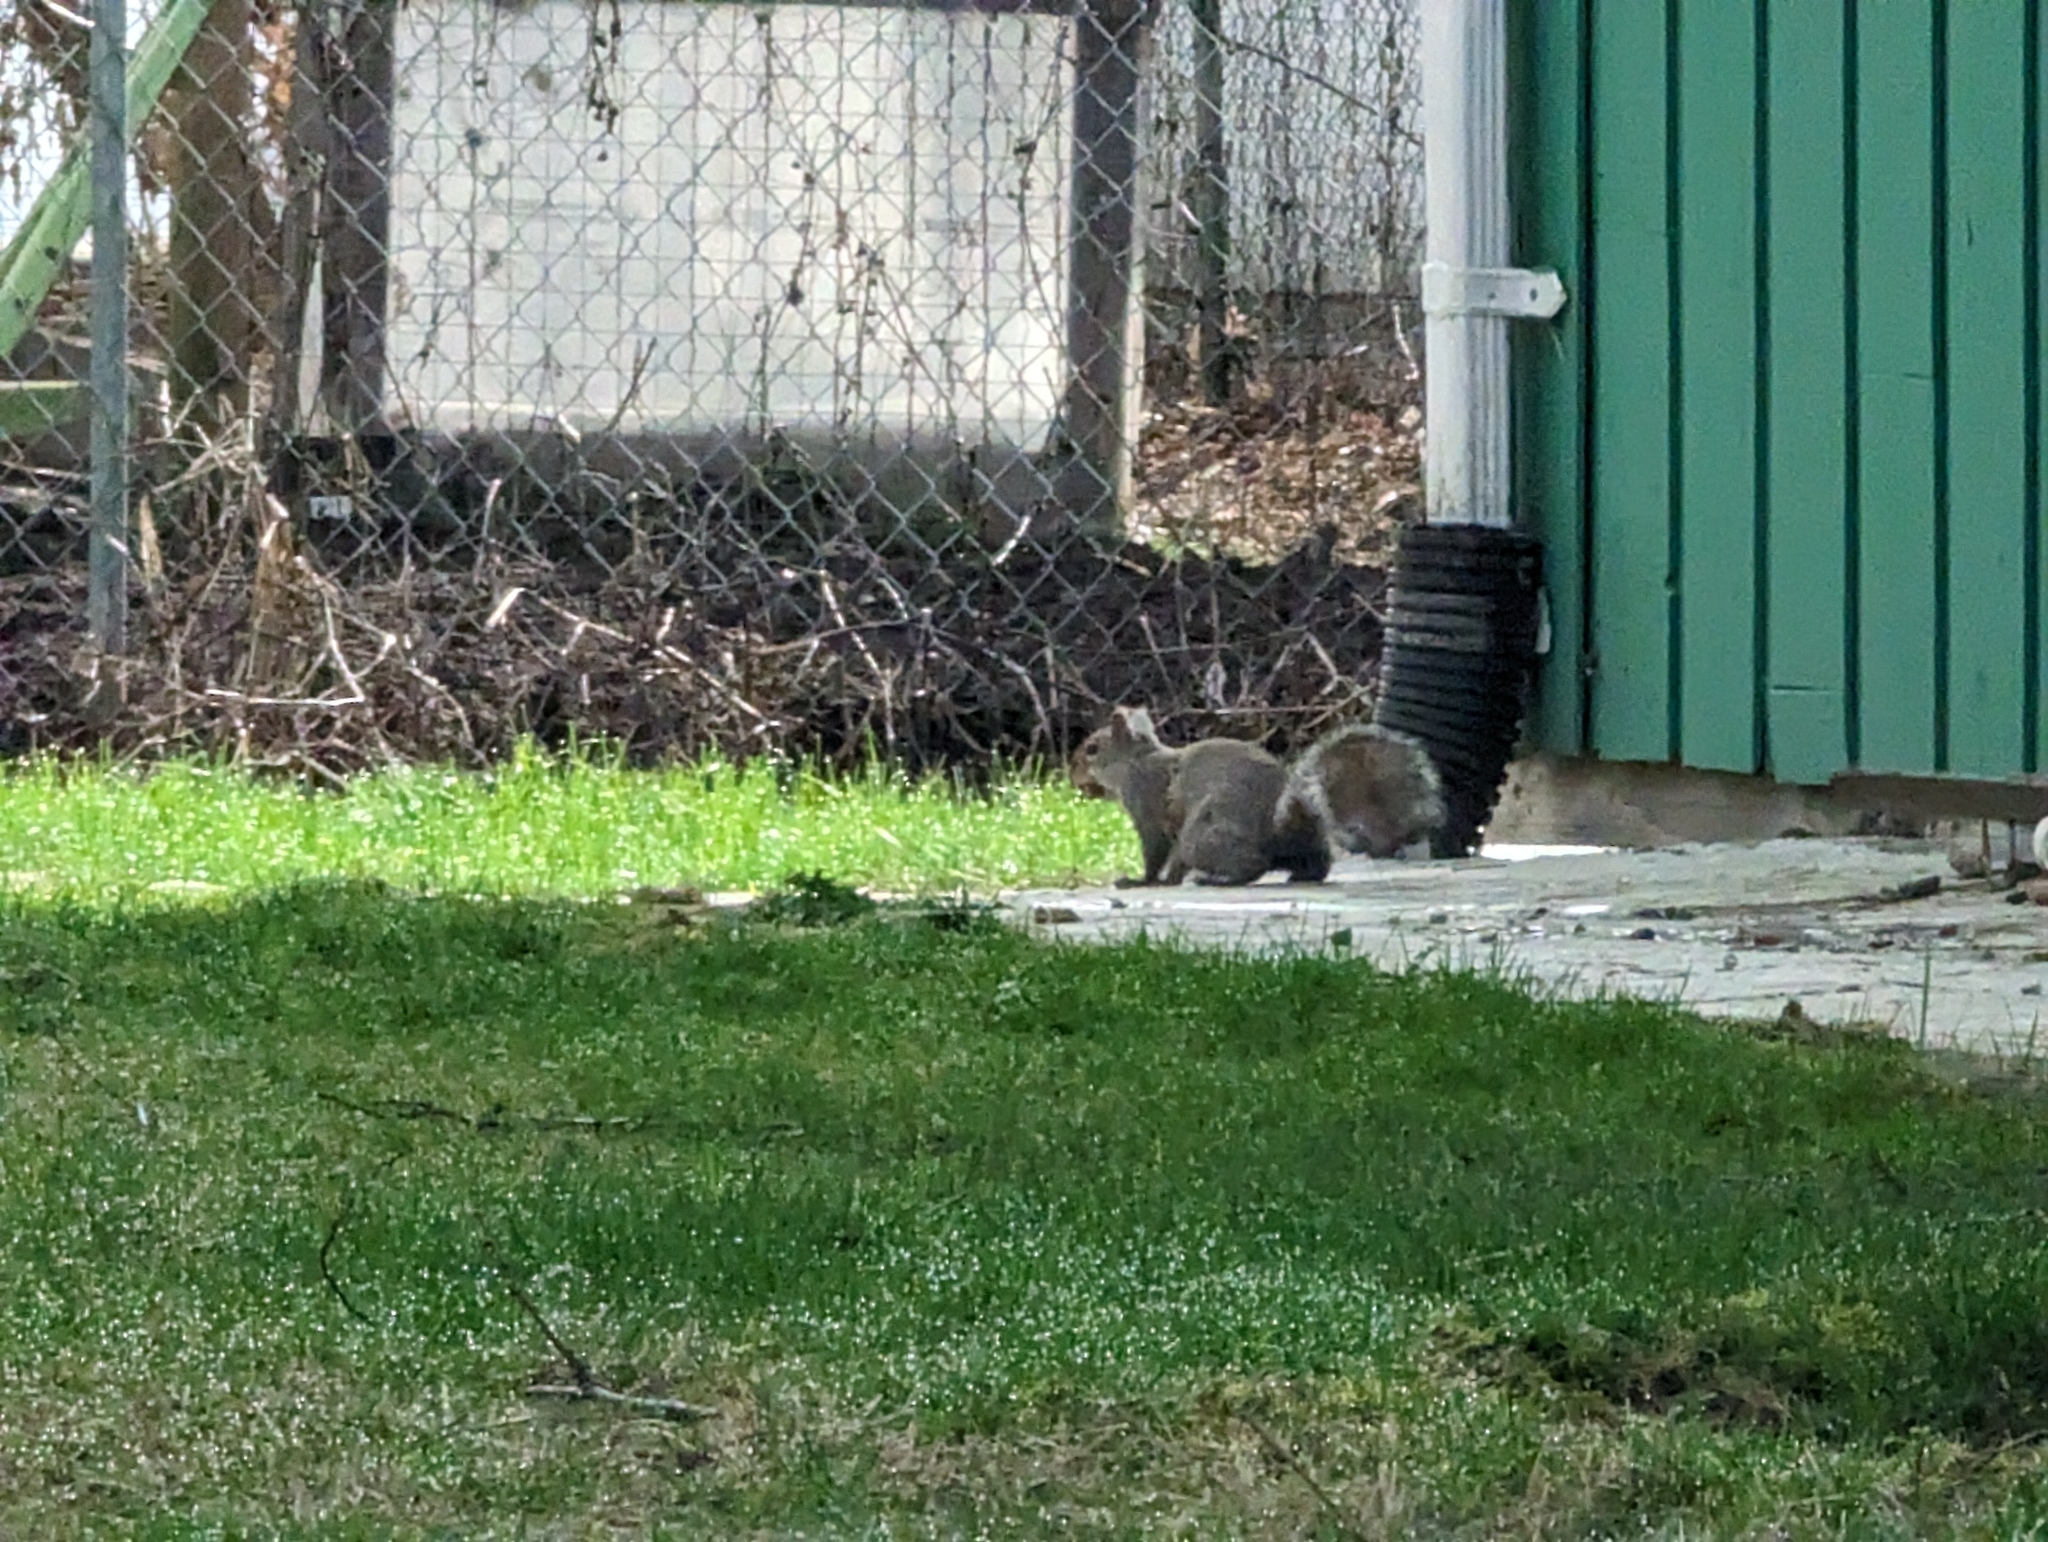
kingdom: Animalia
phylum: Chordata
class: Mammalia
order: Rodentia
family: Sciuridae
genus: Sciurus
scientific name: Sciurus carolinensis
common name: Eastern gray squirrel
